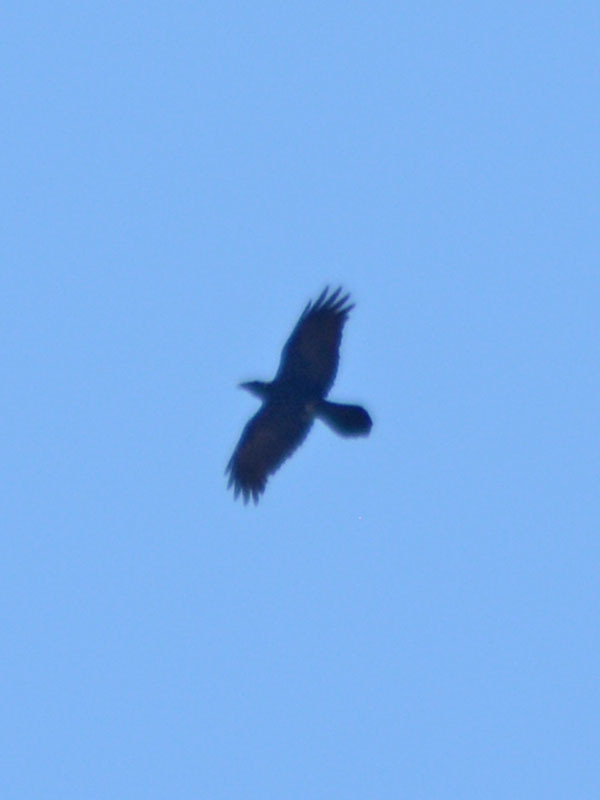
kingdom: Animalia
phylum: Chordata
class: Aves
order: Passeriformes
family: Corvidae
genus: Corvus
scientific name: Corvus corax
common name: Common raven
